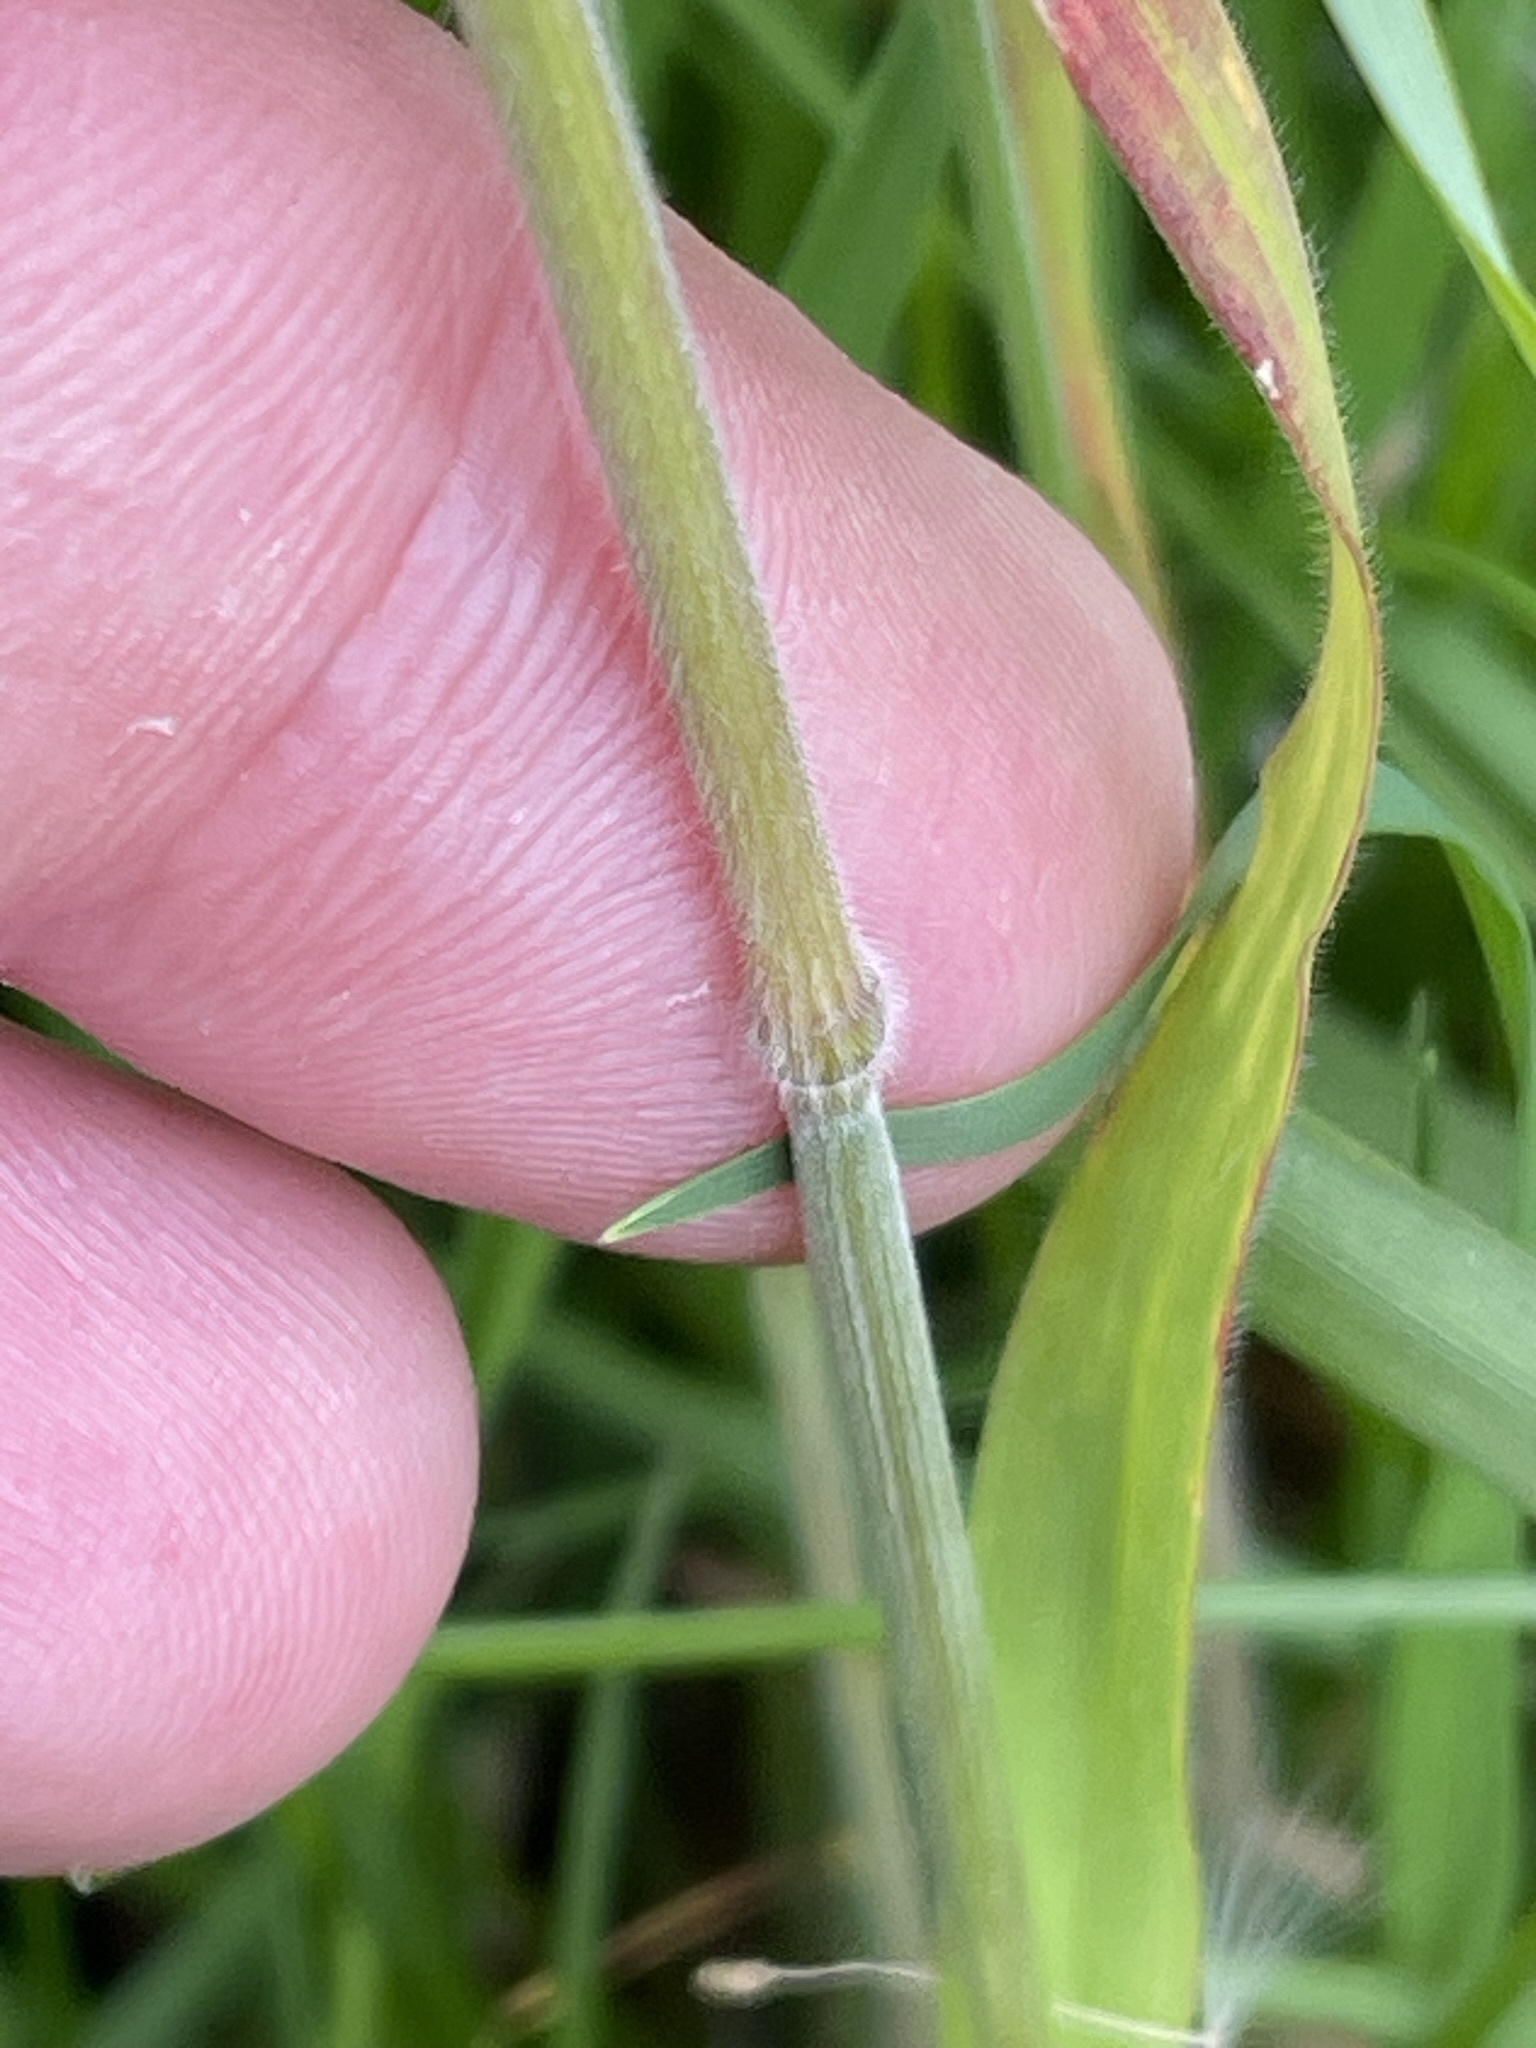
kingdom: Plantae
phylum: Tracheophyta
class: Liliopsida
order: Poales
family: Poaceae
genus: Bromus
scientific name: Bromus hordeaceus
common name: Soft brome
